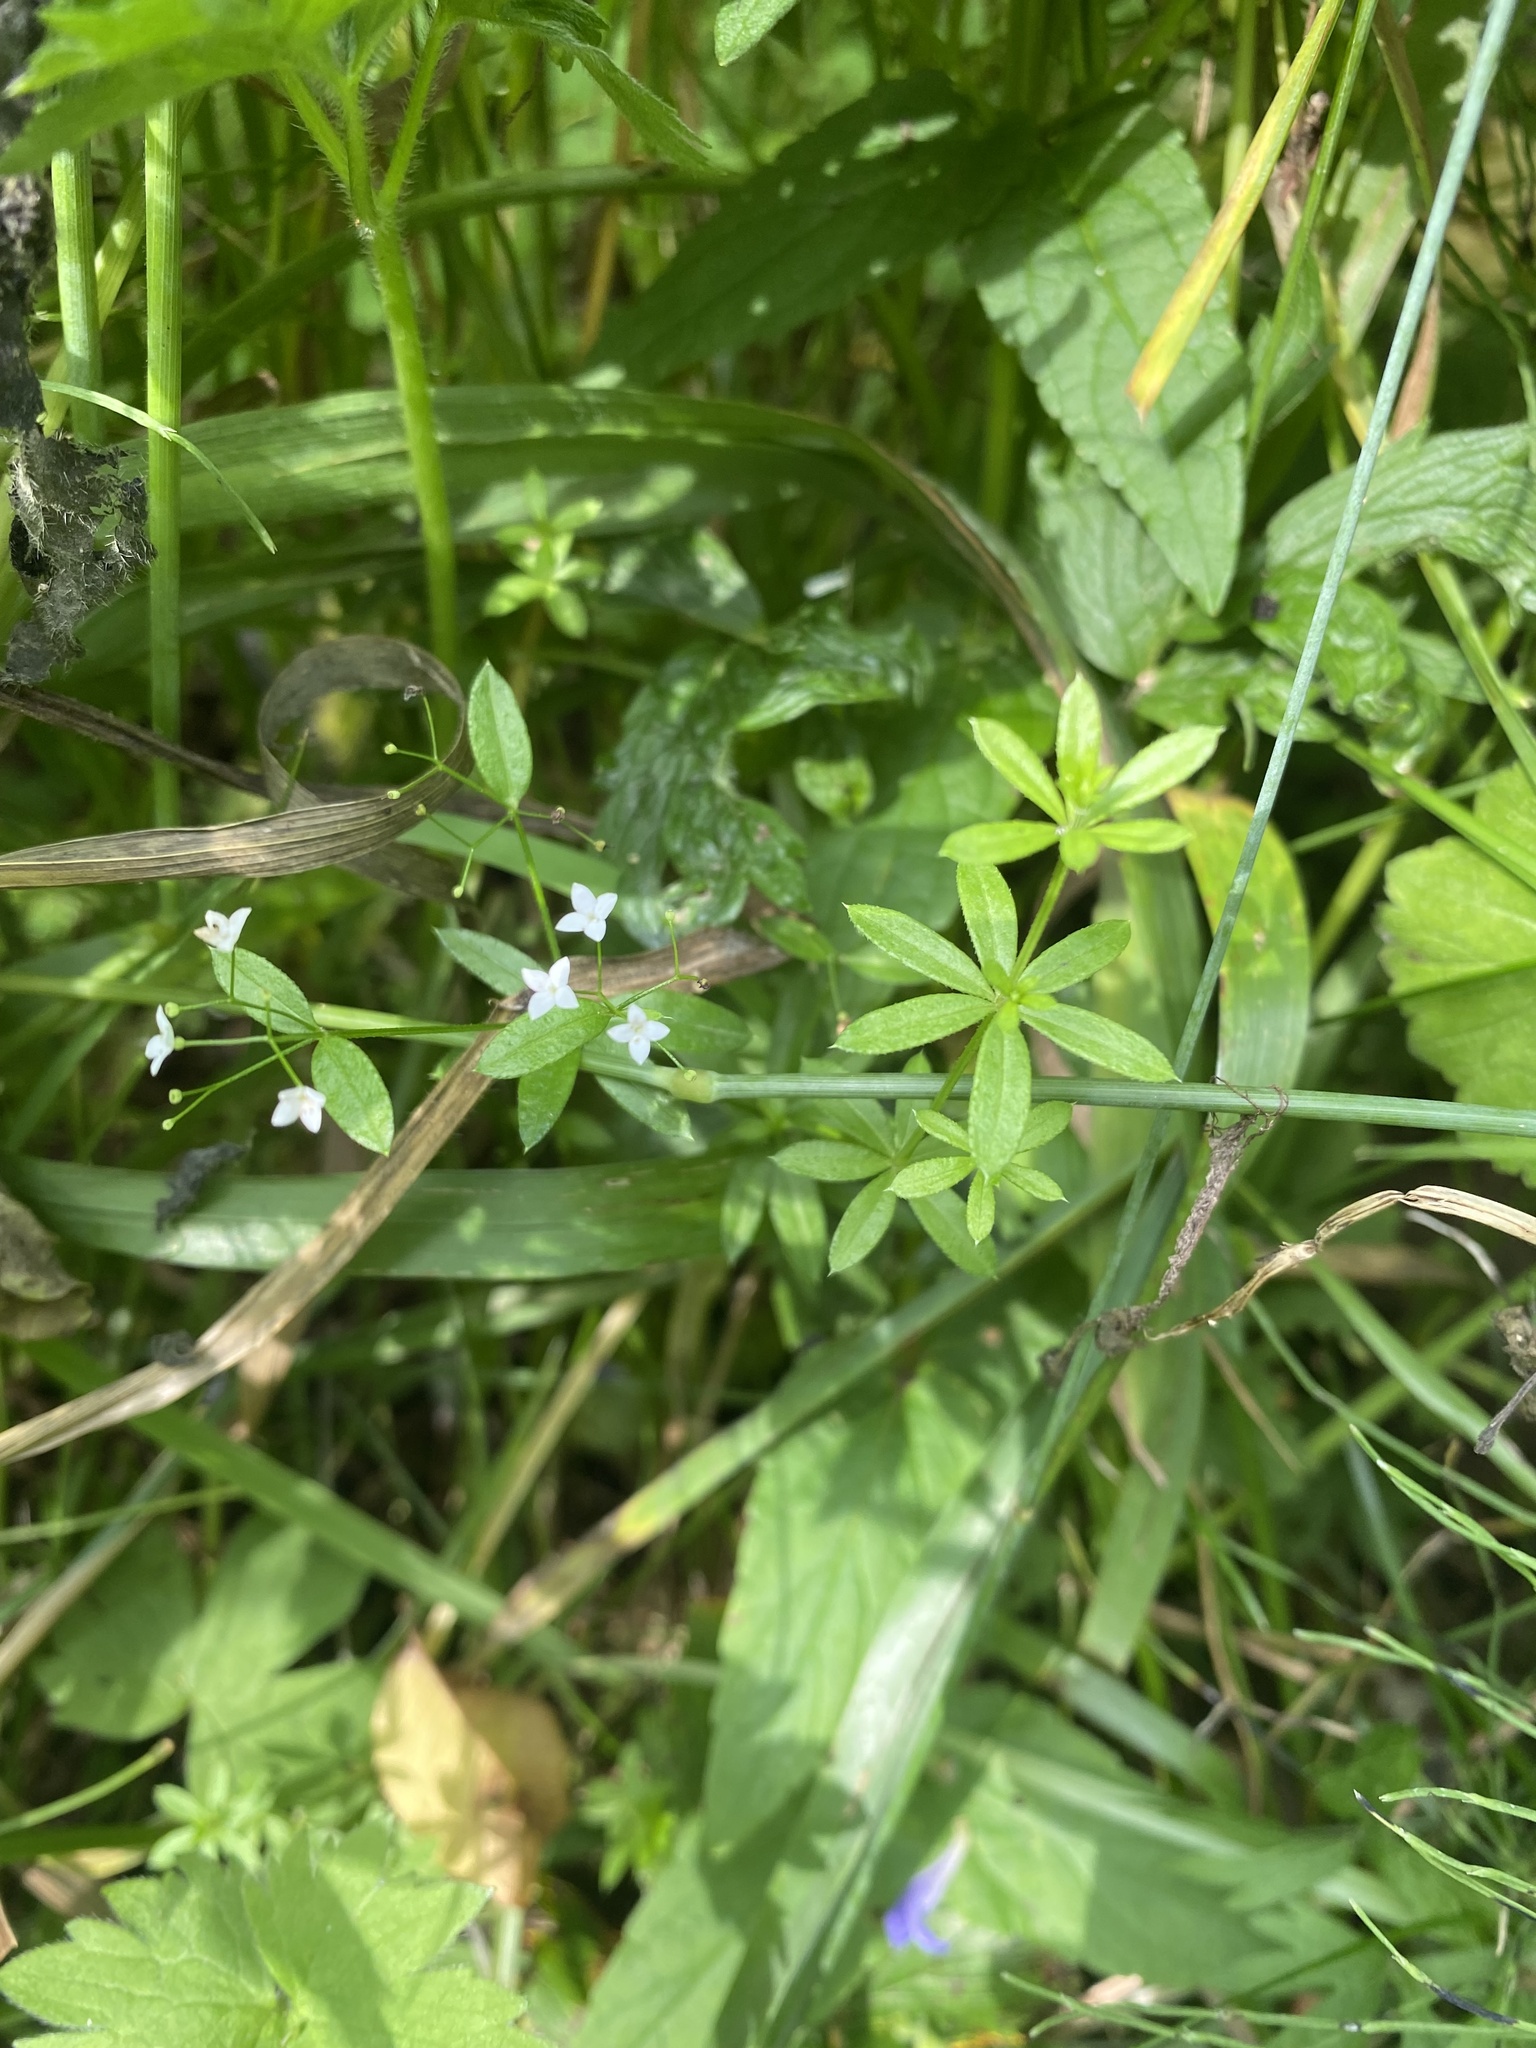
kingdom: Plantae
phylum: Tracheophyta
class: Magnoliopsida
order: Gentianales
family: Rubiaceae
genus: Galium
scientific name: Galium mollugo
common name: Hedge bedstraw
